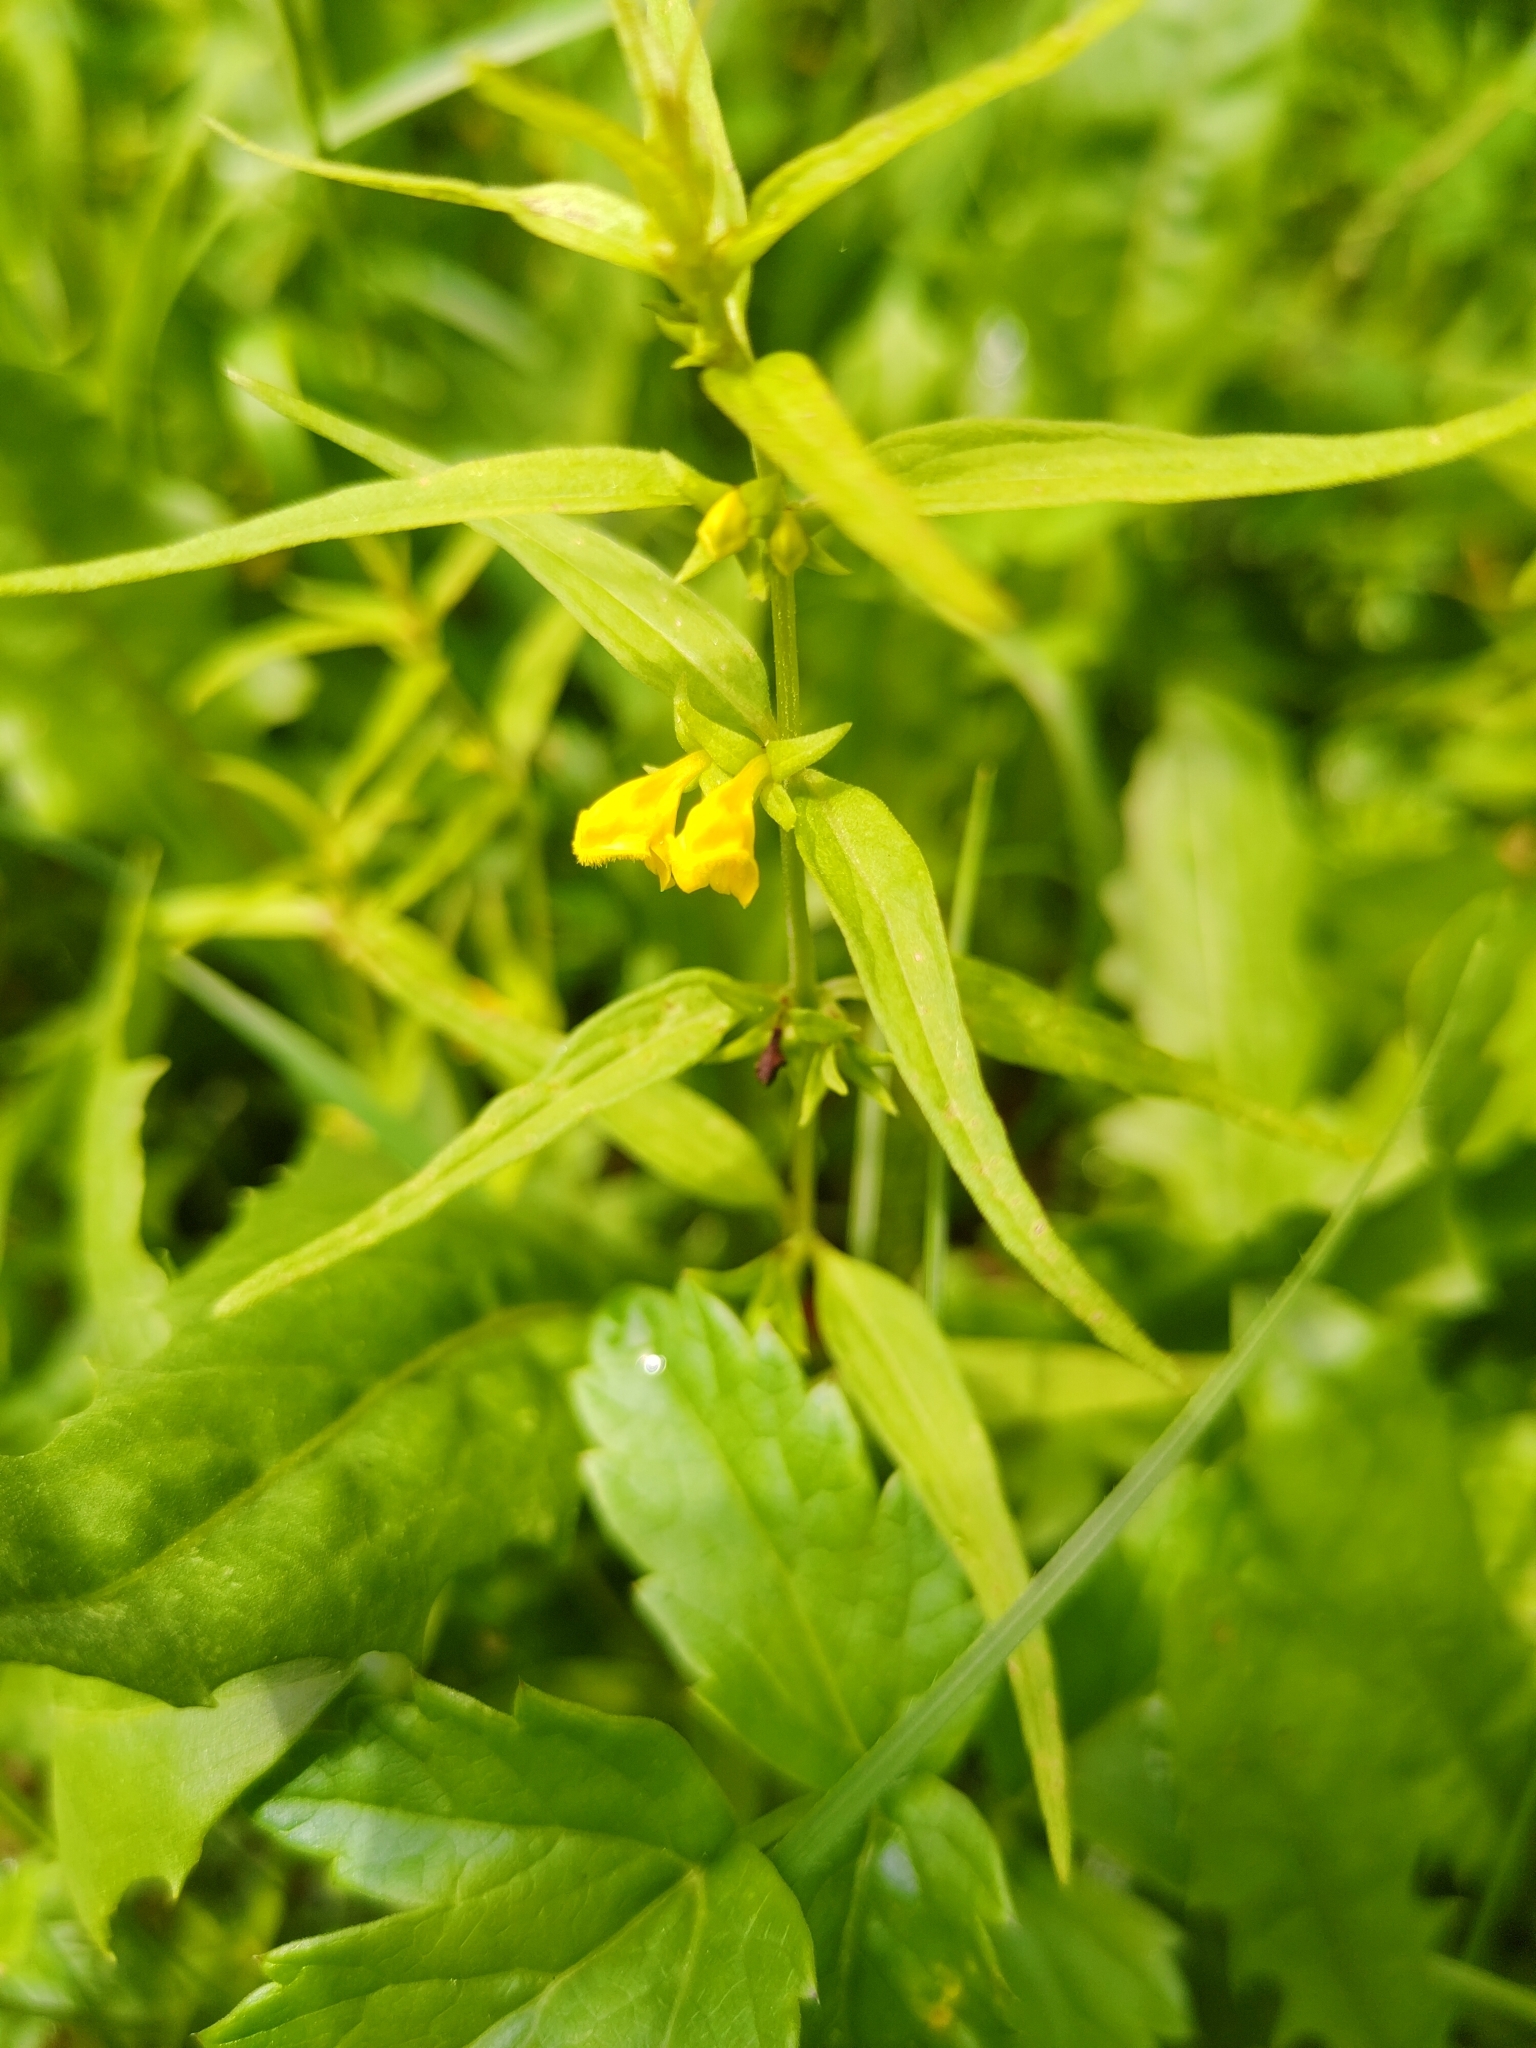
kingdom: Plantae
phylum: Tracheophyta
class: Magnoliopsida
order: Lamiales
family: Orobanchaceae
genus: Melampyrum
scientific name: Melampyrum sylvaticum
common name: Small cow-wheat
